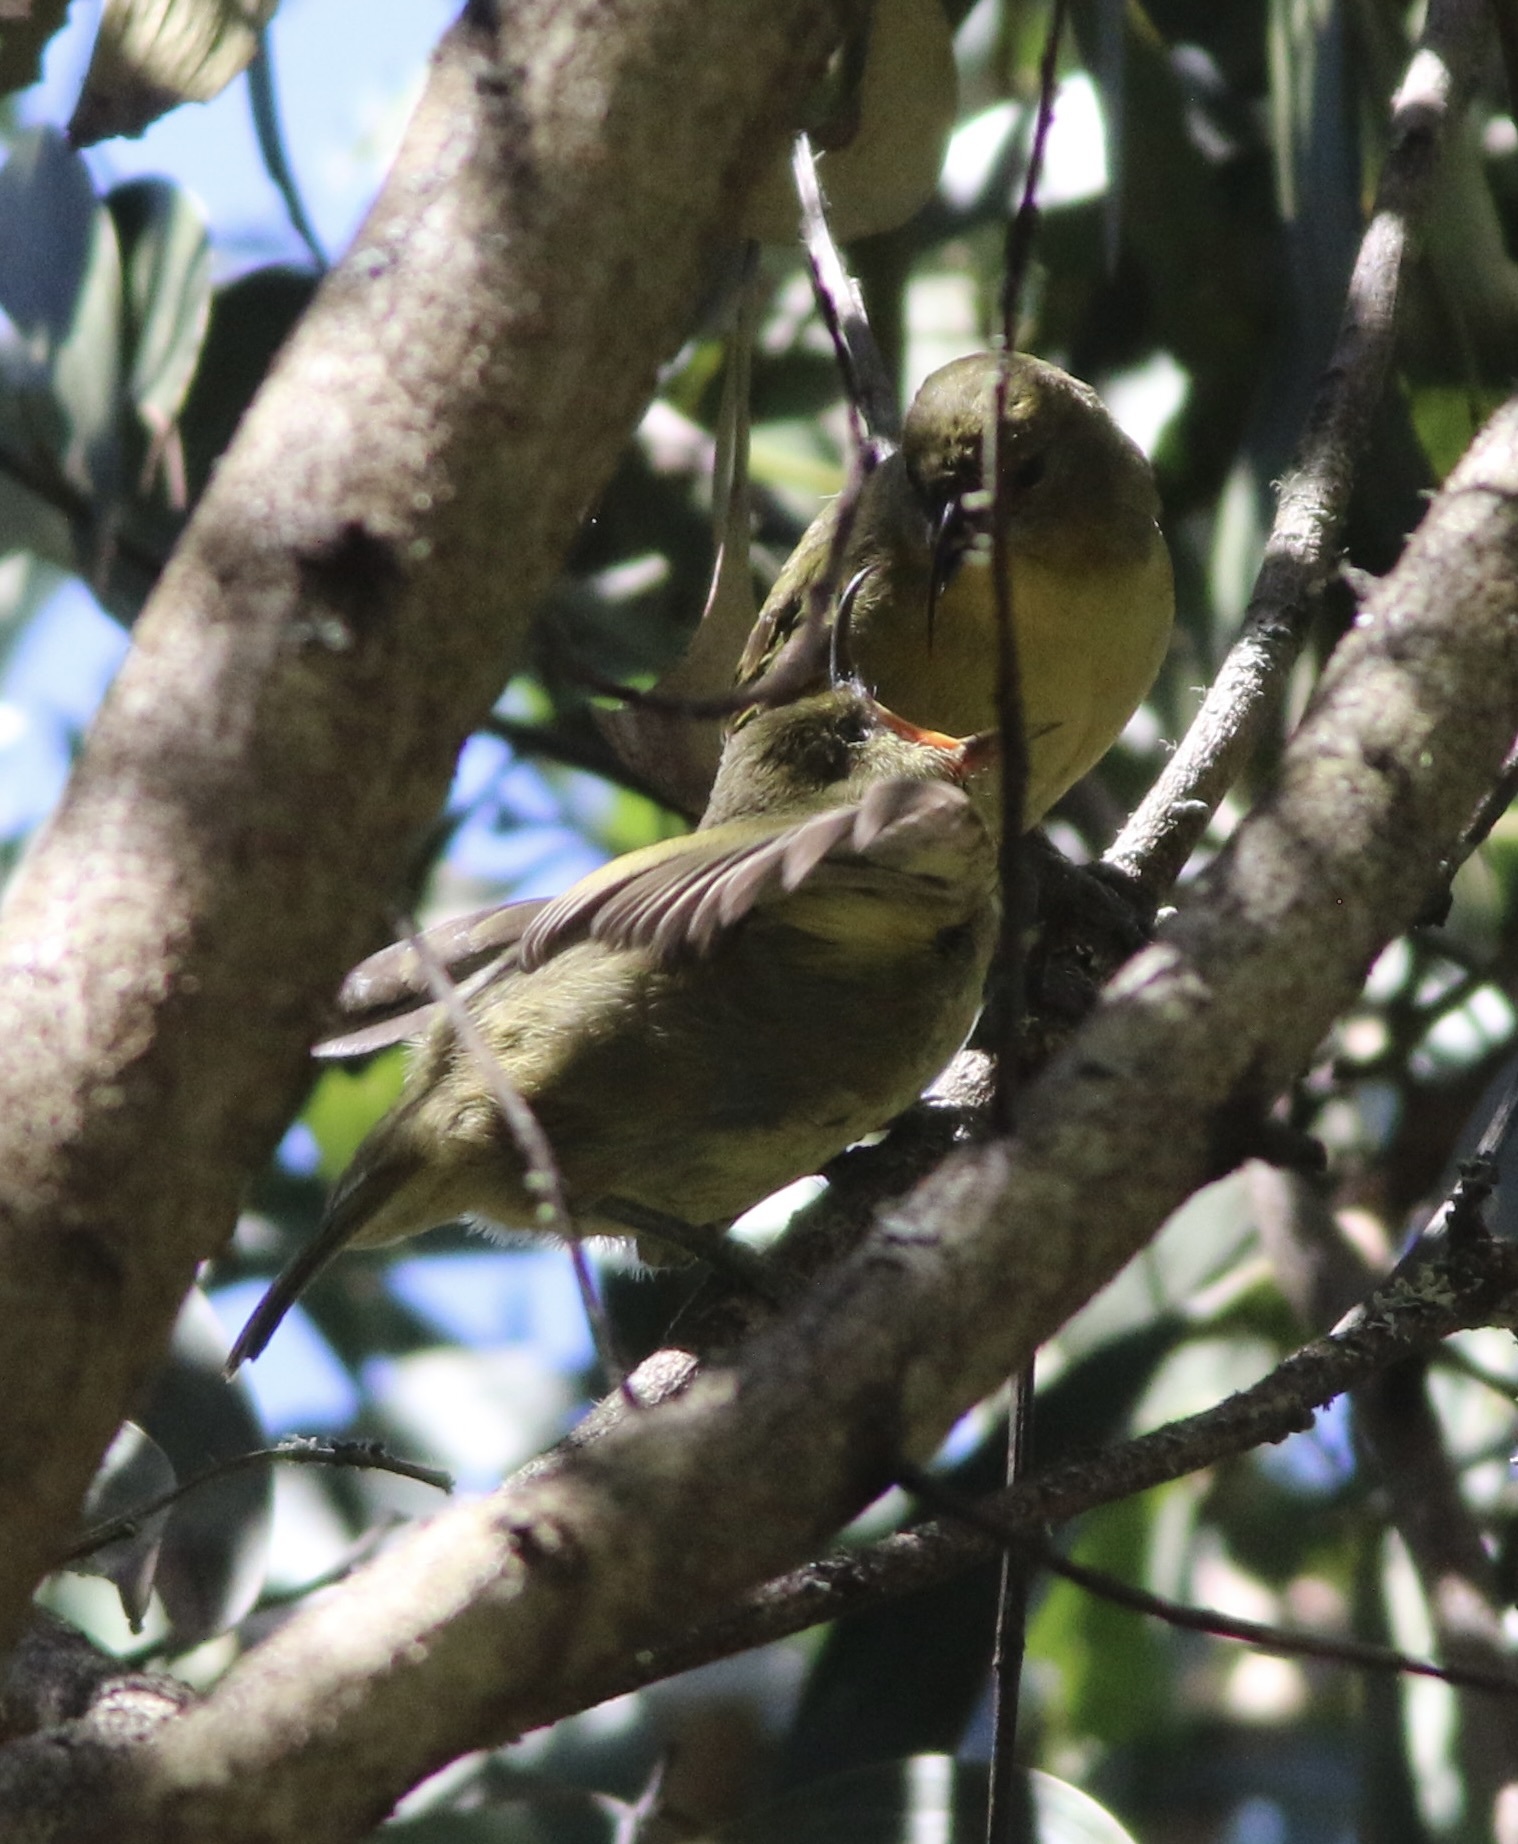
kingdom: Animalia
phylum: Chordata
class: Aves
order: Passeriformes
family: Fringillidae
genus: Hemignathus
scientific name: Hemignathus wilsoni
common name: Akiapolaau
